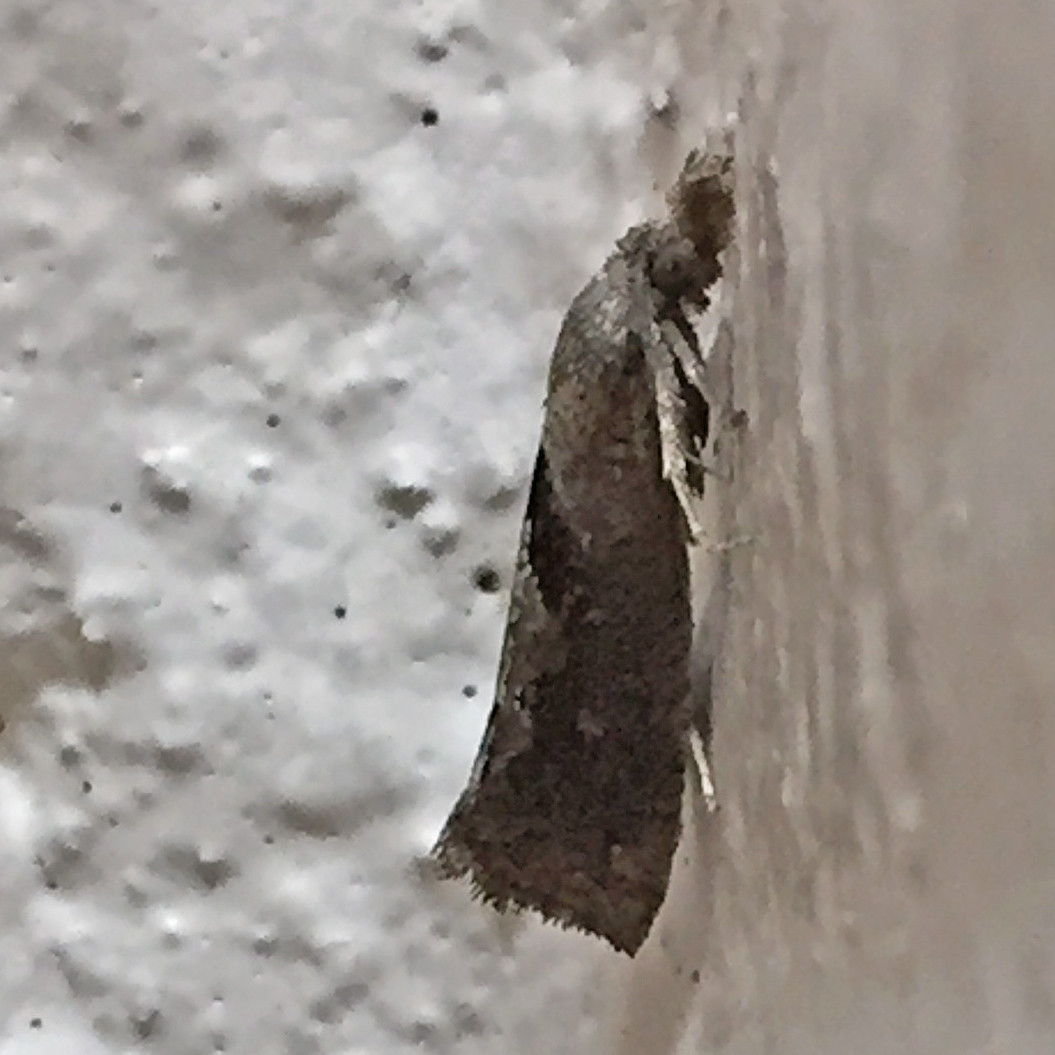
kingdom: Animalia
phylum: Arthropoda
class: Insecta
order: Lepidoptera
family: Tortricidae
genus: Pelochrista
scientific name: Pelochrista similiana
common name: Similar eucosma
